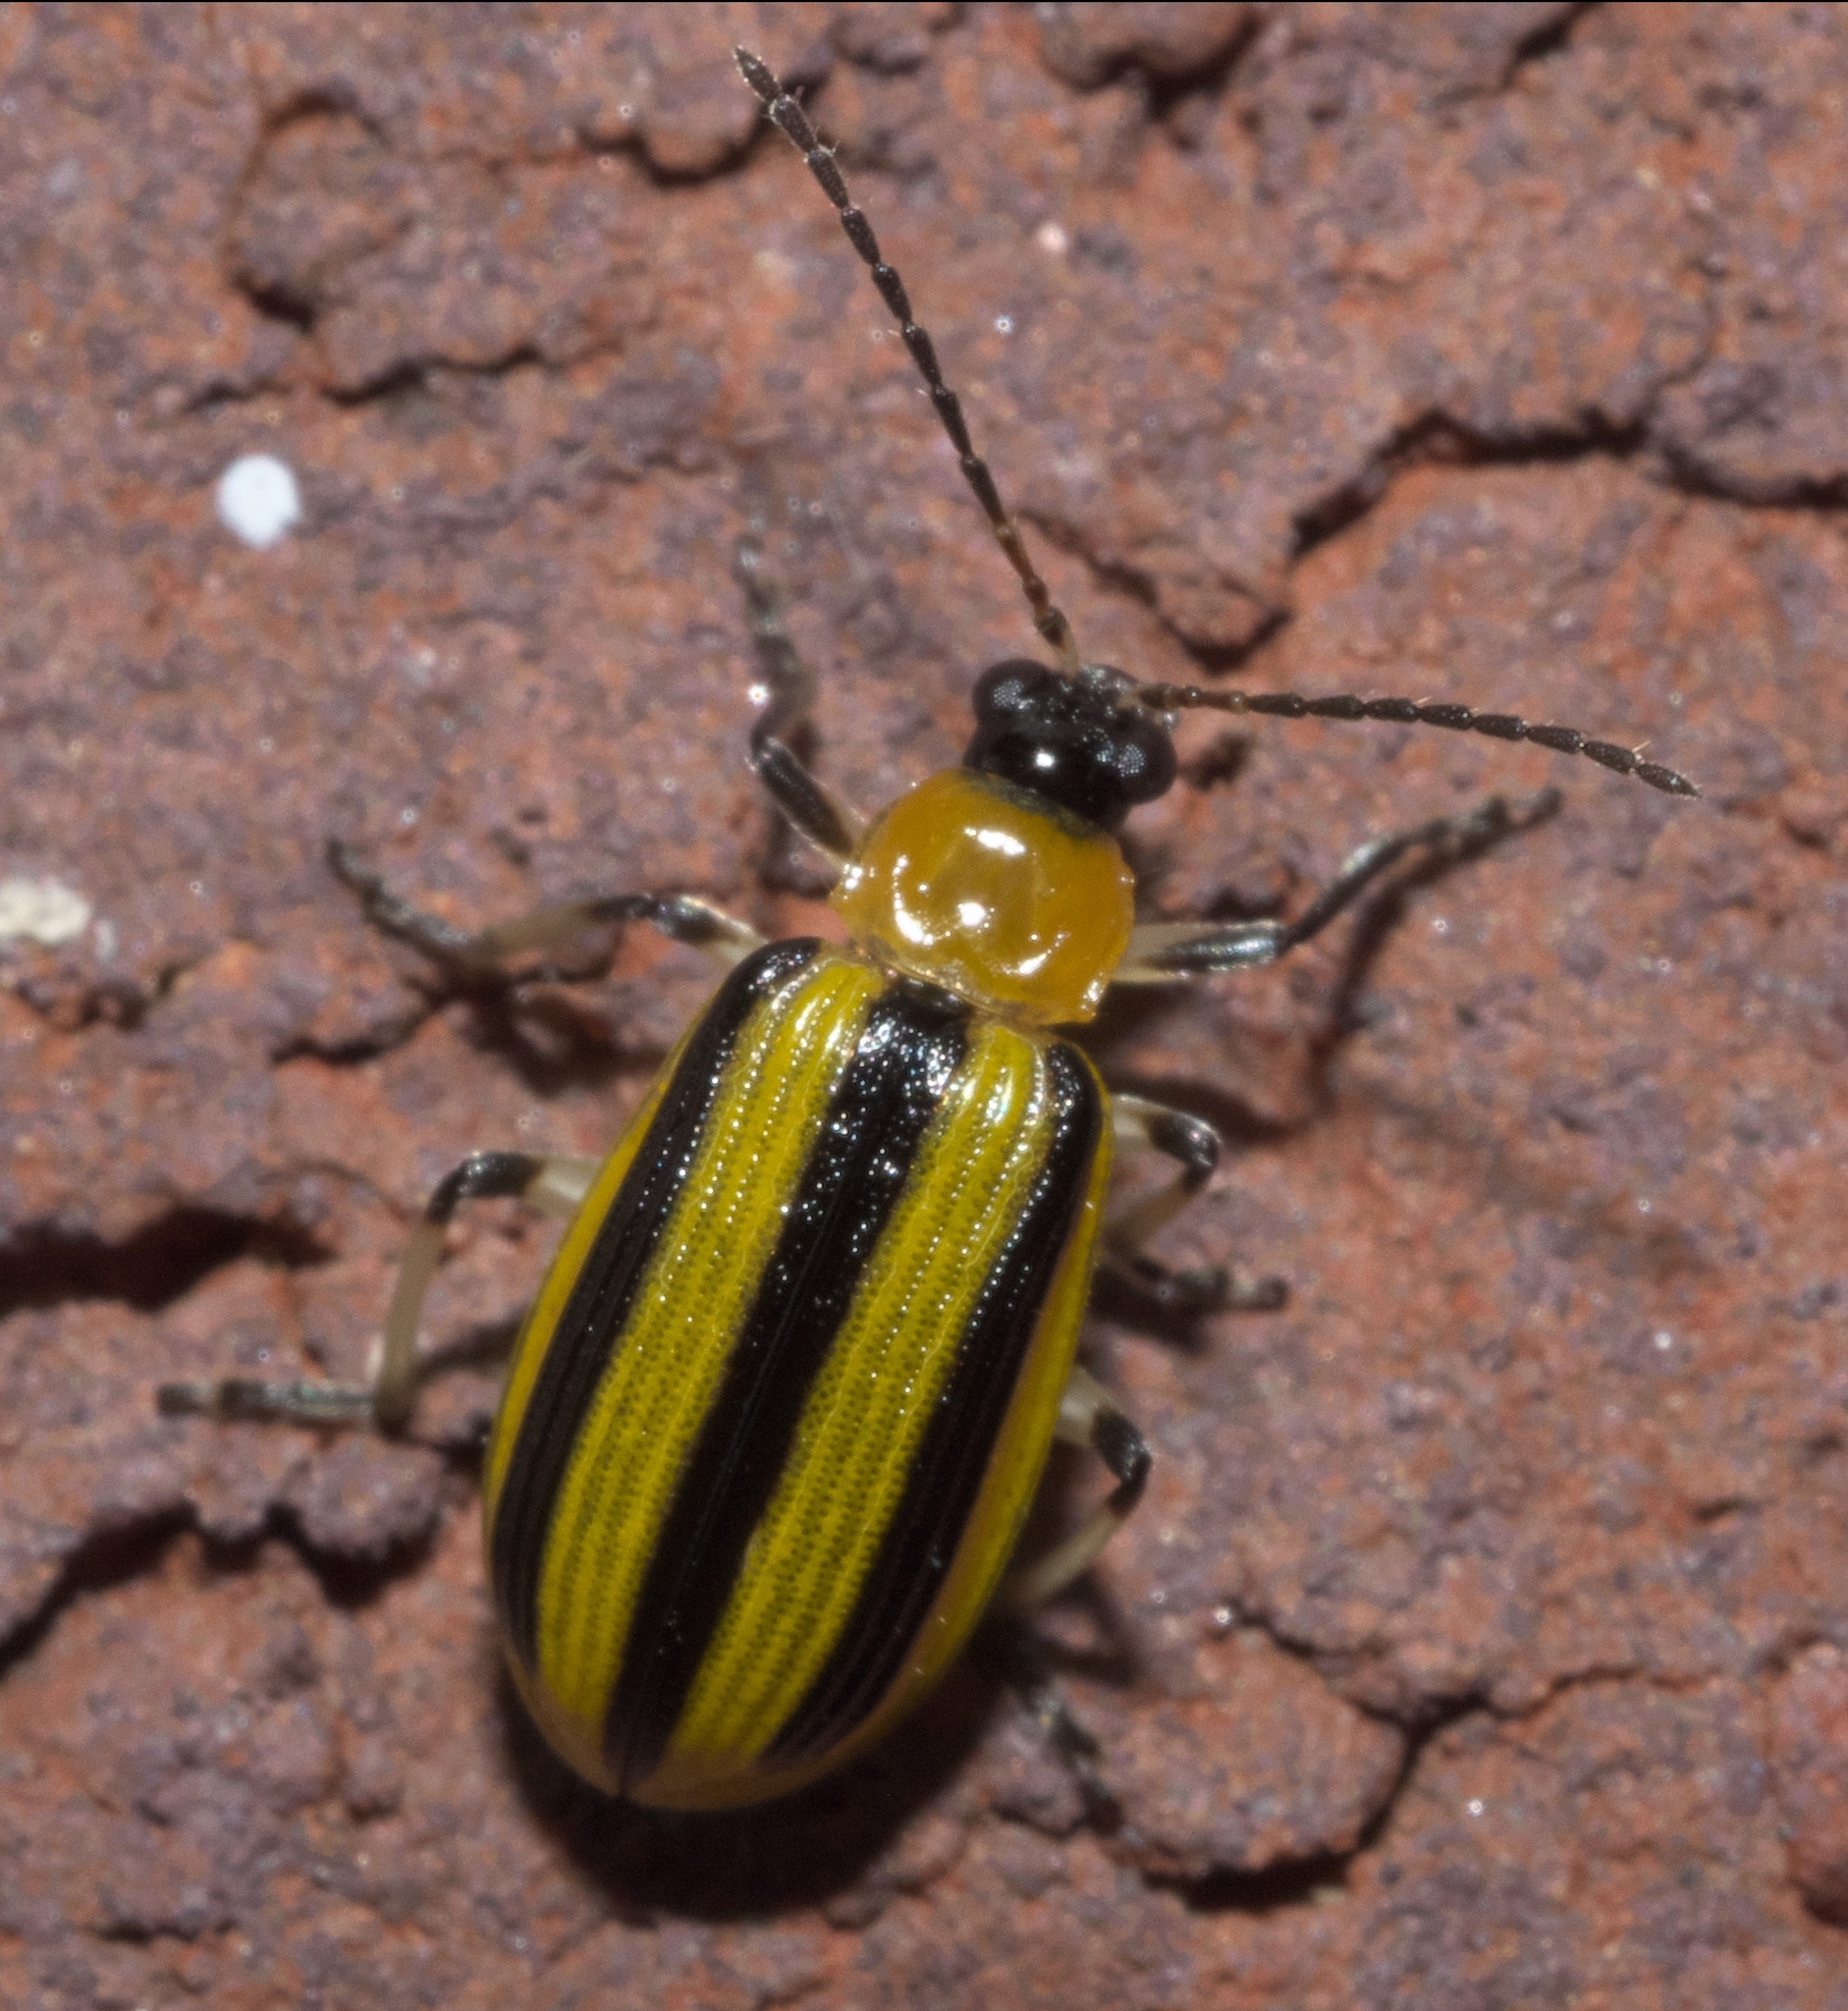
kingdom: Animalia
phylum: Arthropoda
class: Insecta
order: Coleoptera
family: Chrysomelidae
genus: Acalymma
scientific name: Acalymma vittatum
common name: Striped cucumber beetle
